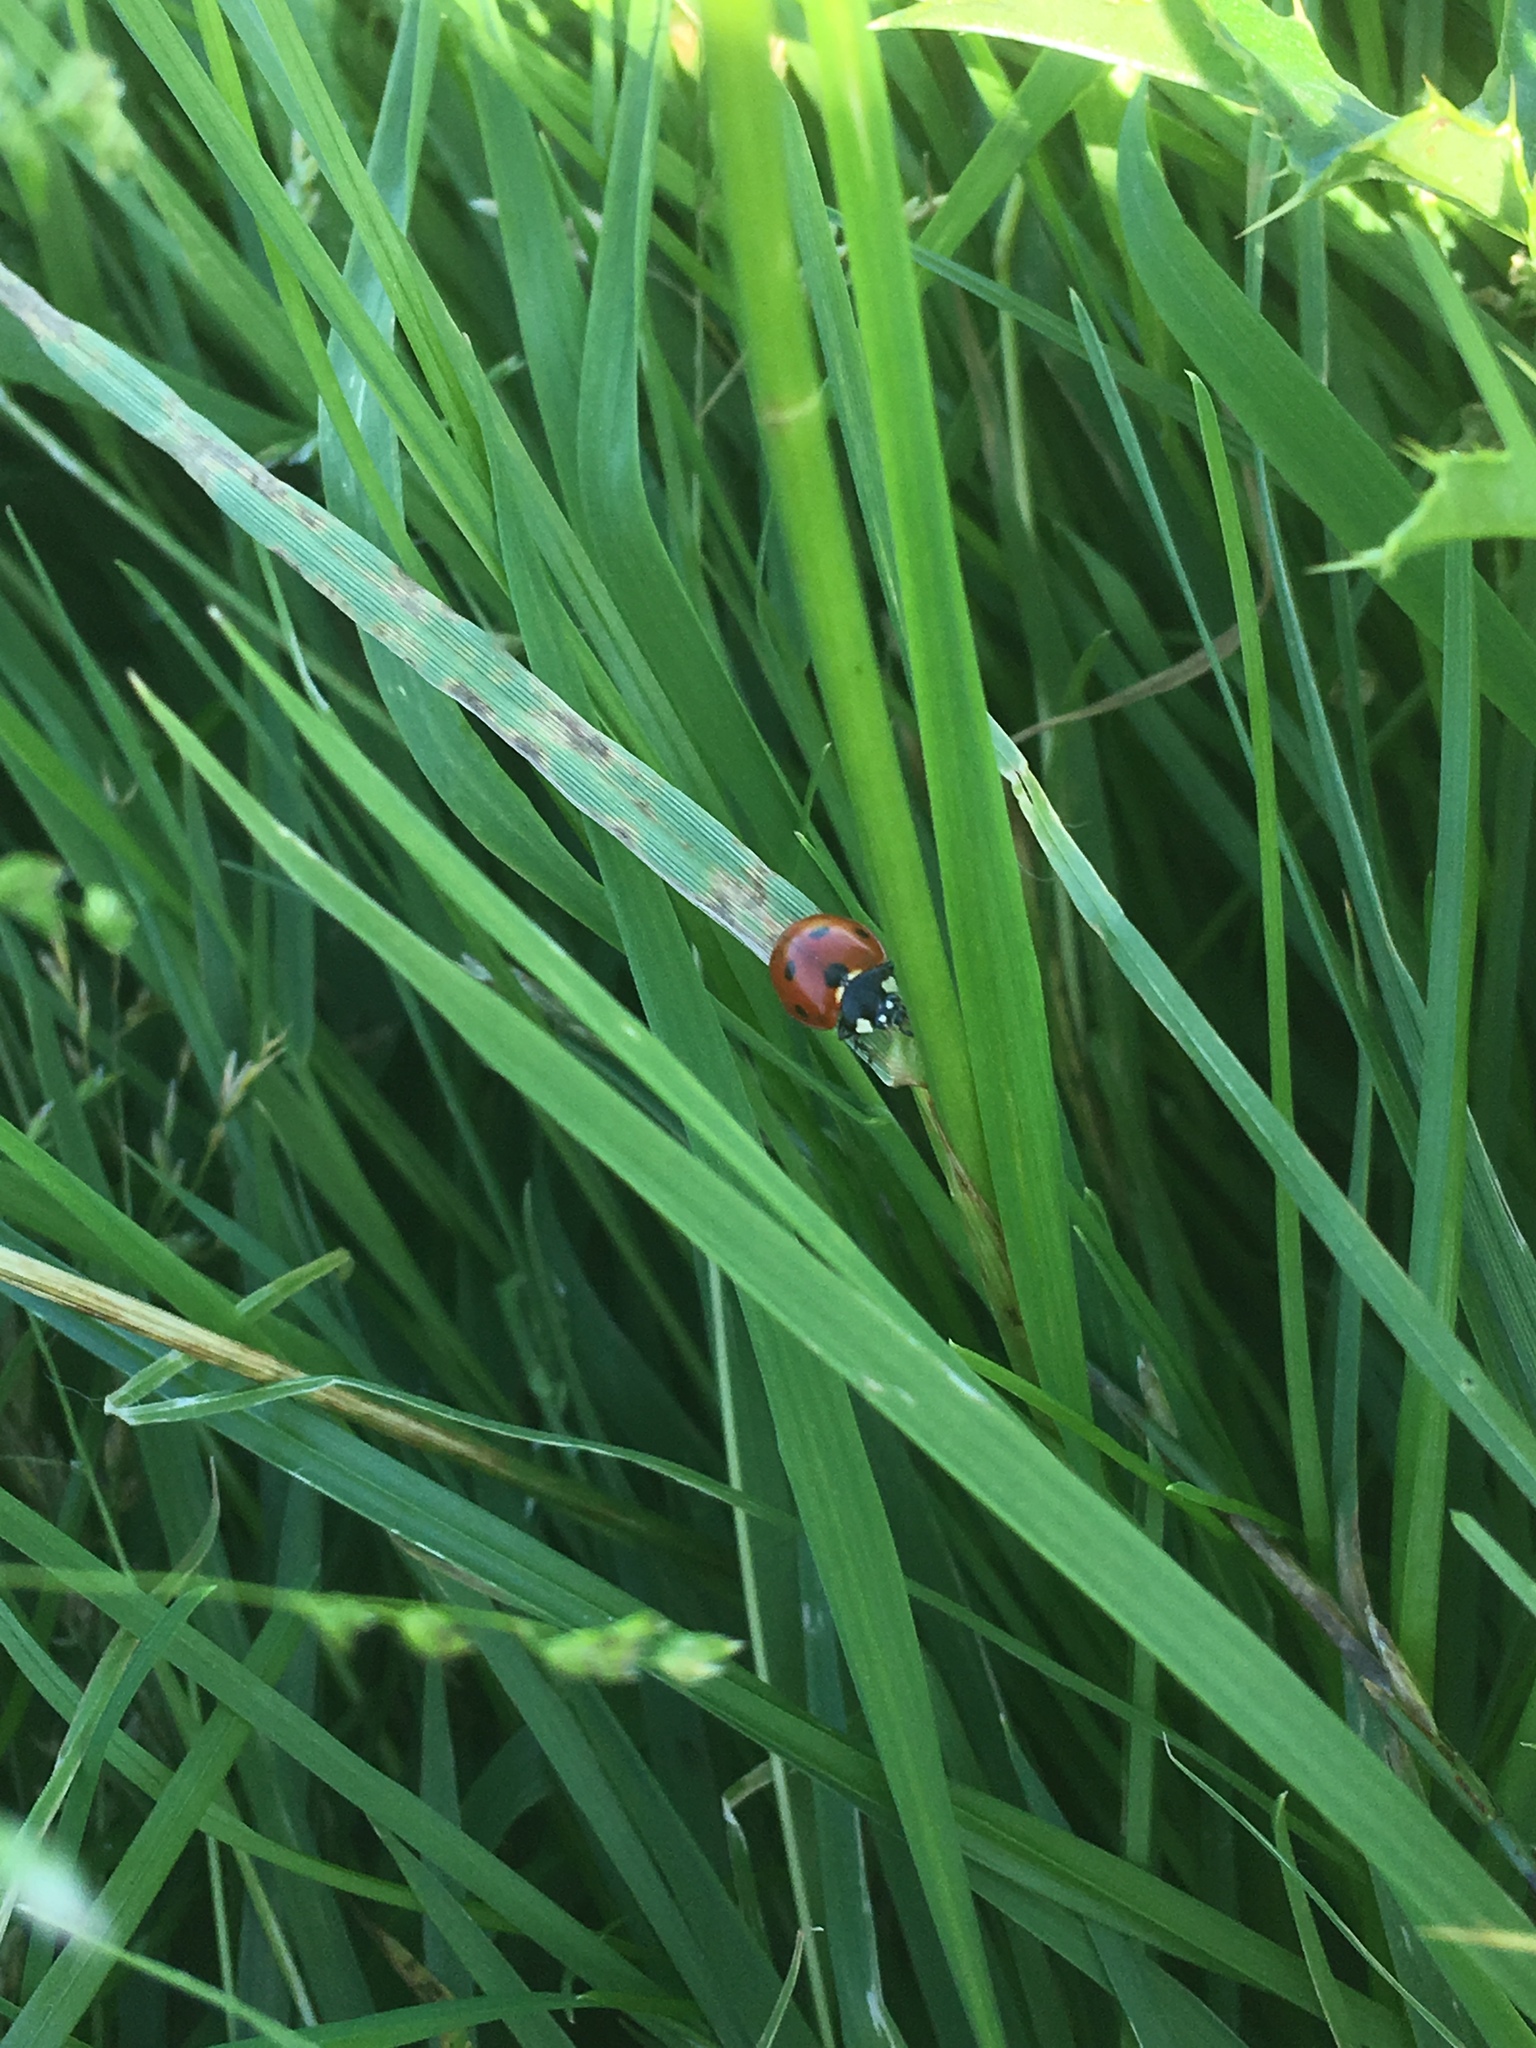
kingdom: Animalia
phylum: Arthropoda
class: Insecta
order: Coleoptera
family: Coccinellidae
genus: Coccinella
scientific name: Coccinella septempunctata
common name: Sevenspotted lady beetle
